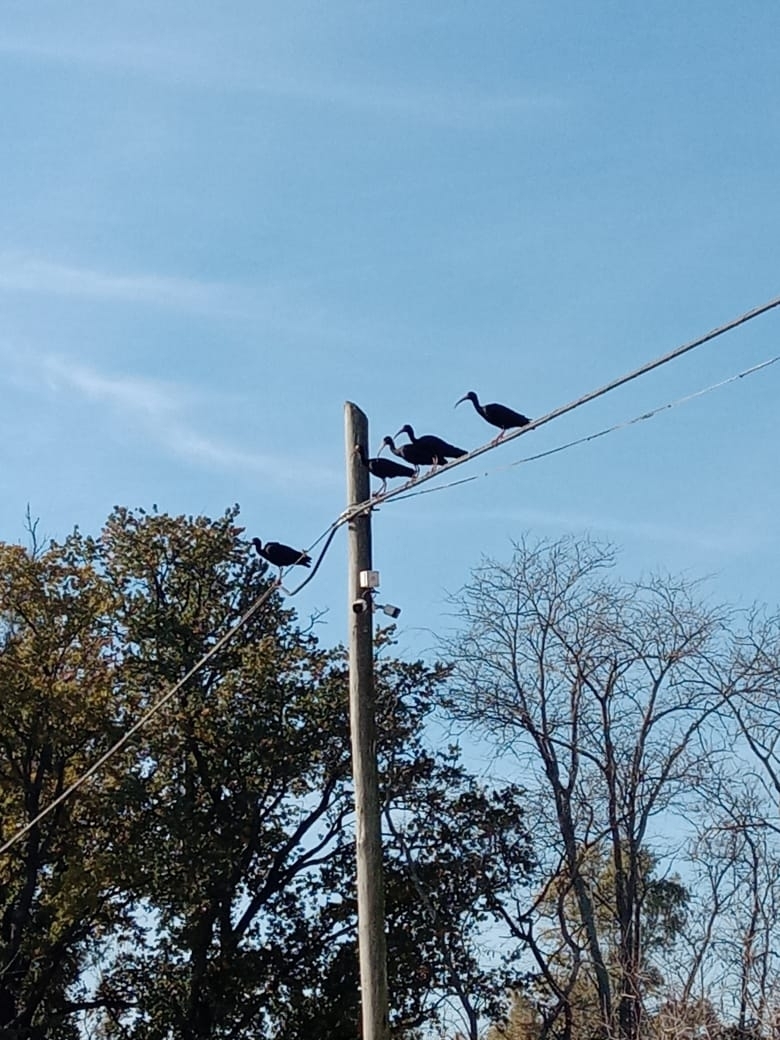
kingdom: Animalia
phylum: Chordata
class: Aves
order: Pelecaniformes
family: Threskiornithidae
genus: Phimosus
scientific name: Phimosus infuscatus
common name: Bare-faced ibis
